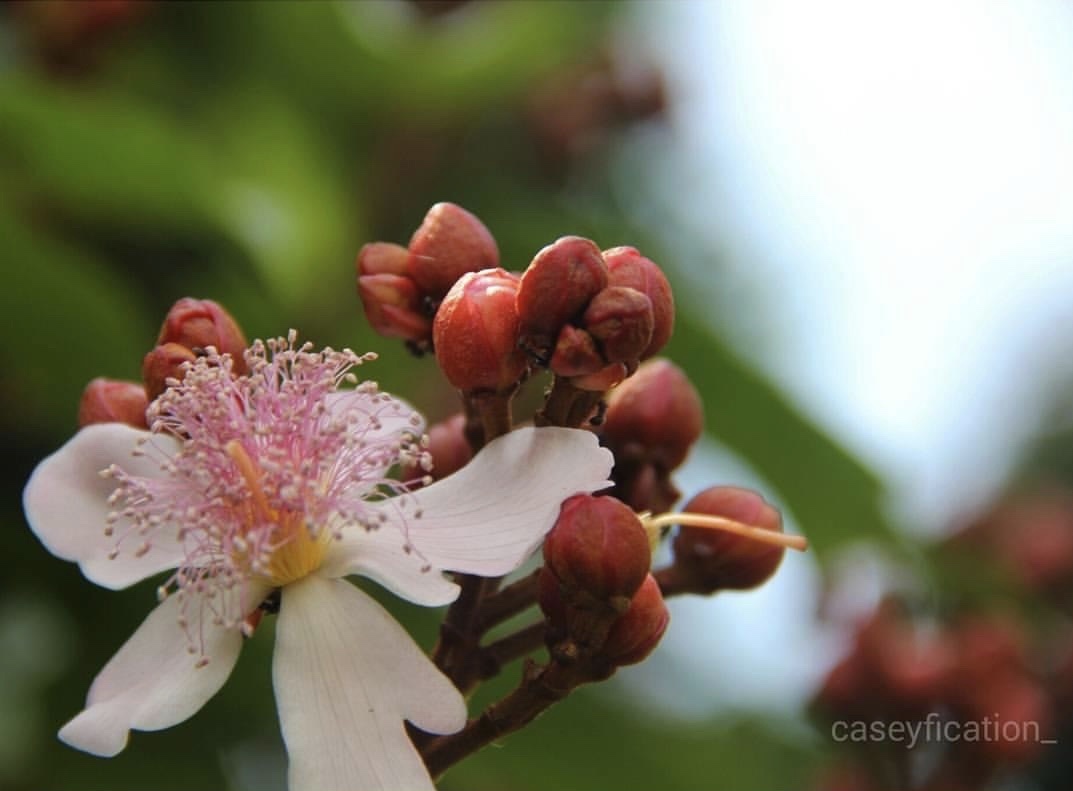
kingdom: Plantae
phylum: Tracheophyta
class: Magnoliopsida
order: Malvales
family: Bixaceae
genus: Bixa
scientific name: Bixa orellana
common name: Lipsticktree
